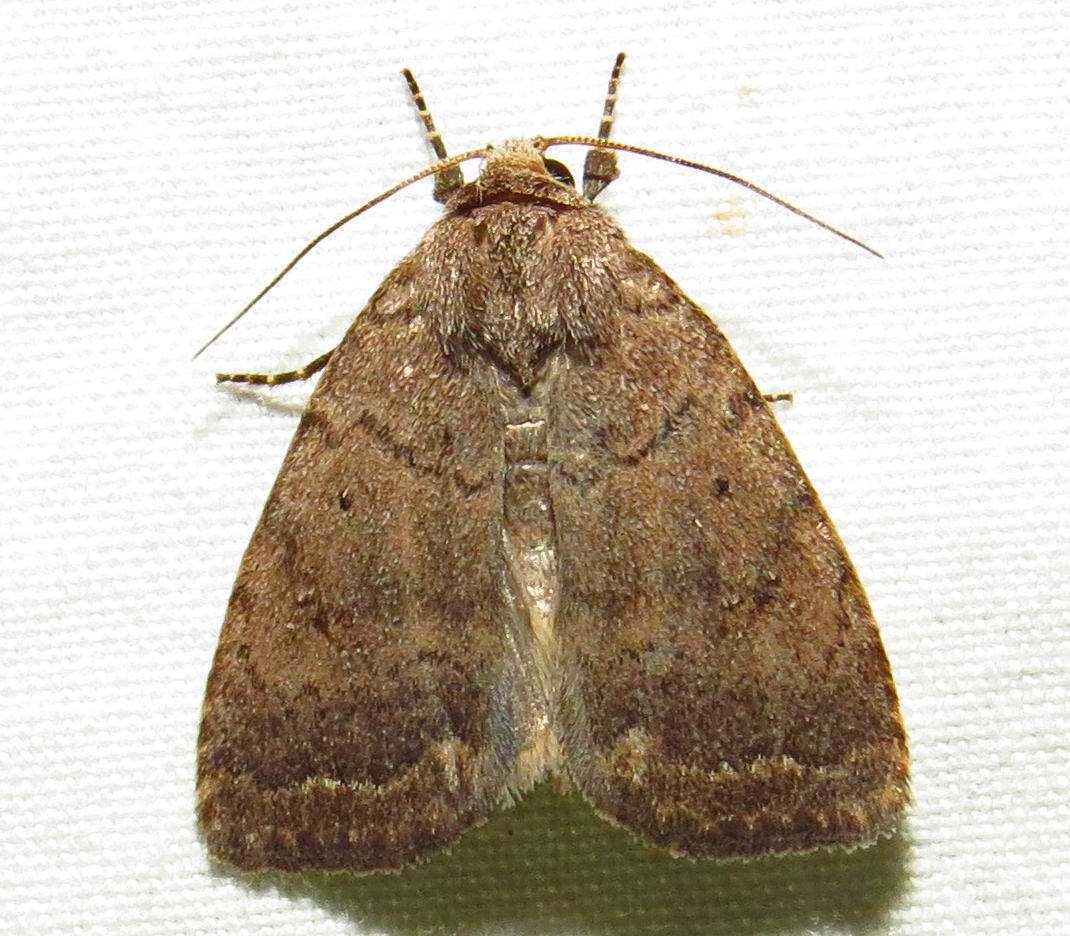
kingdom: Animalia
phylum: Arthropoda
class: Insecta
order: Lepidoptera
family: Noctuidae
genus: Athetis
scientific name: Athetis tarda
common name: Slowpoke moth
